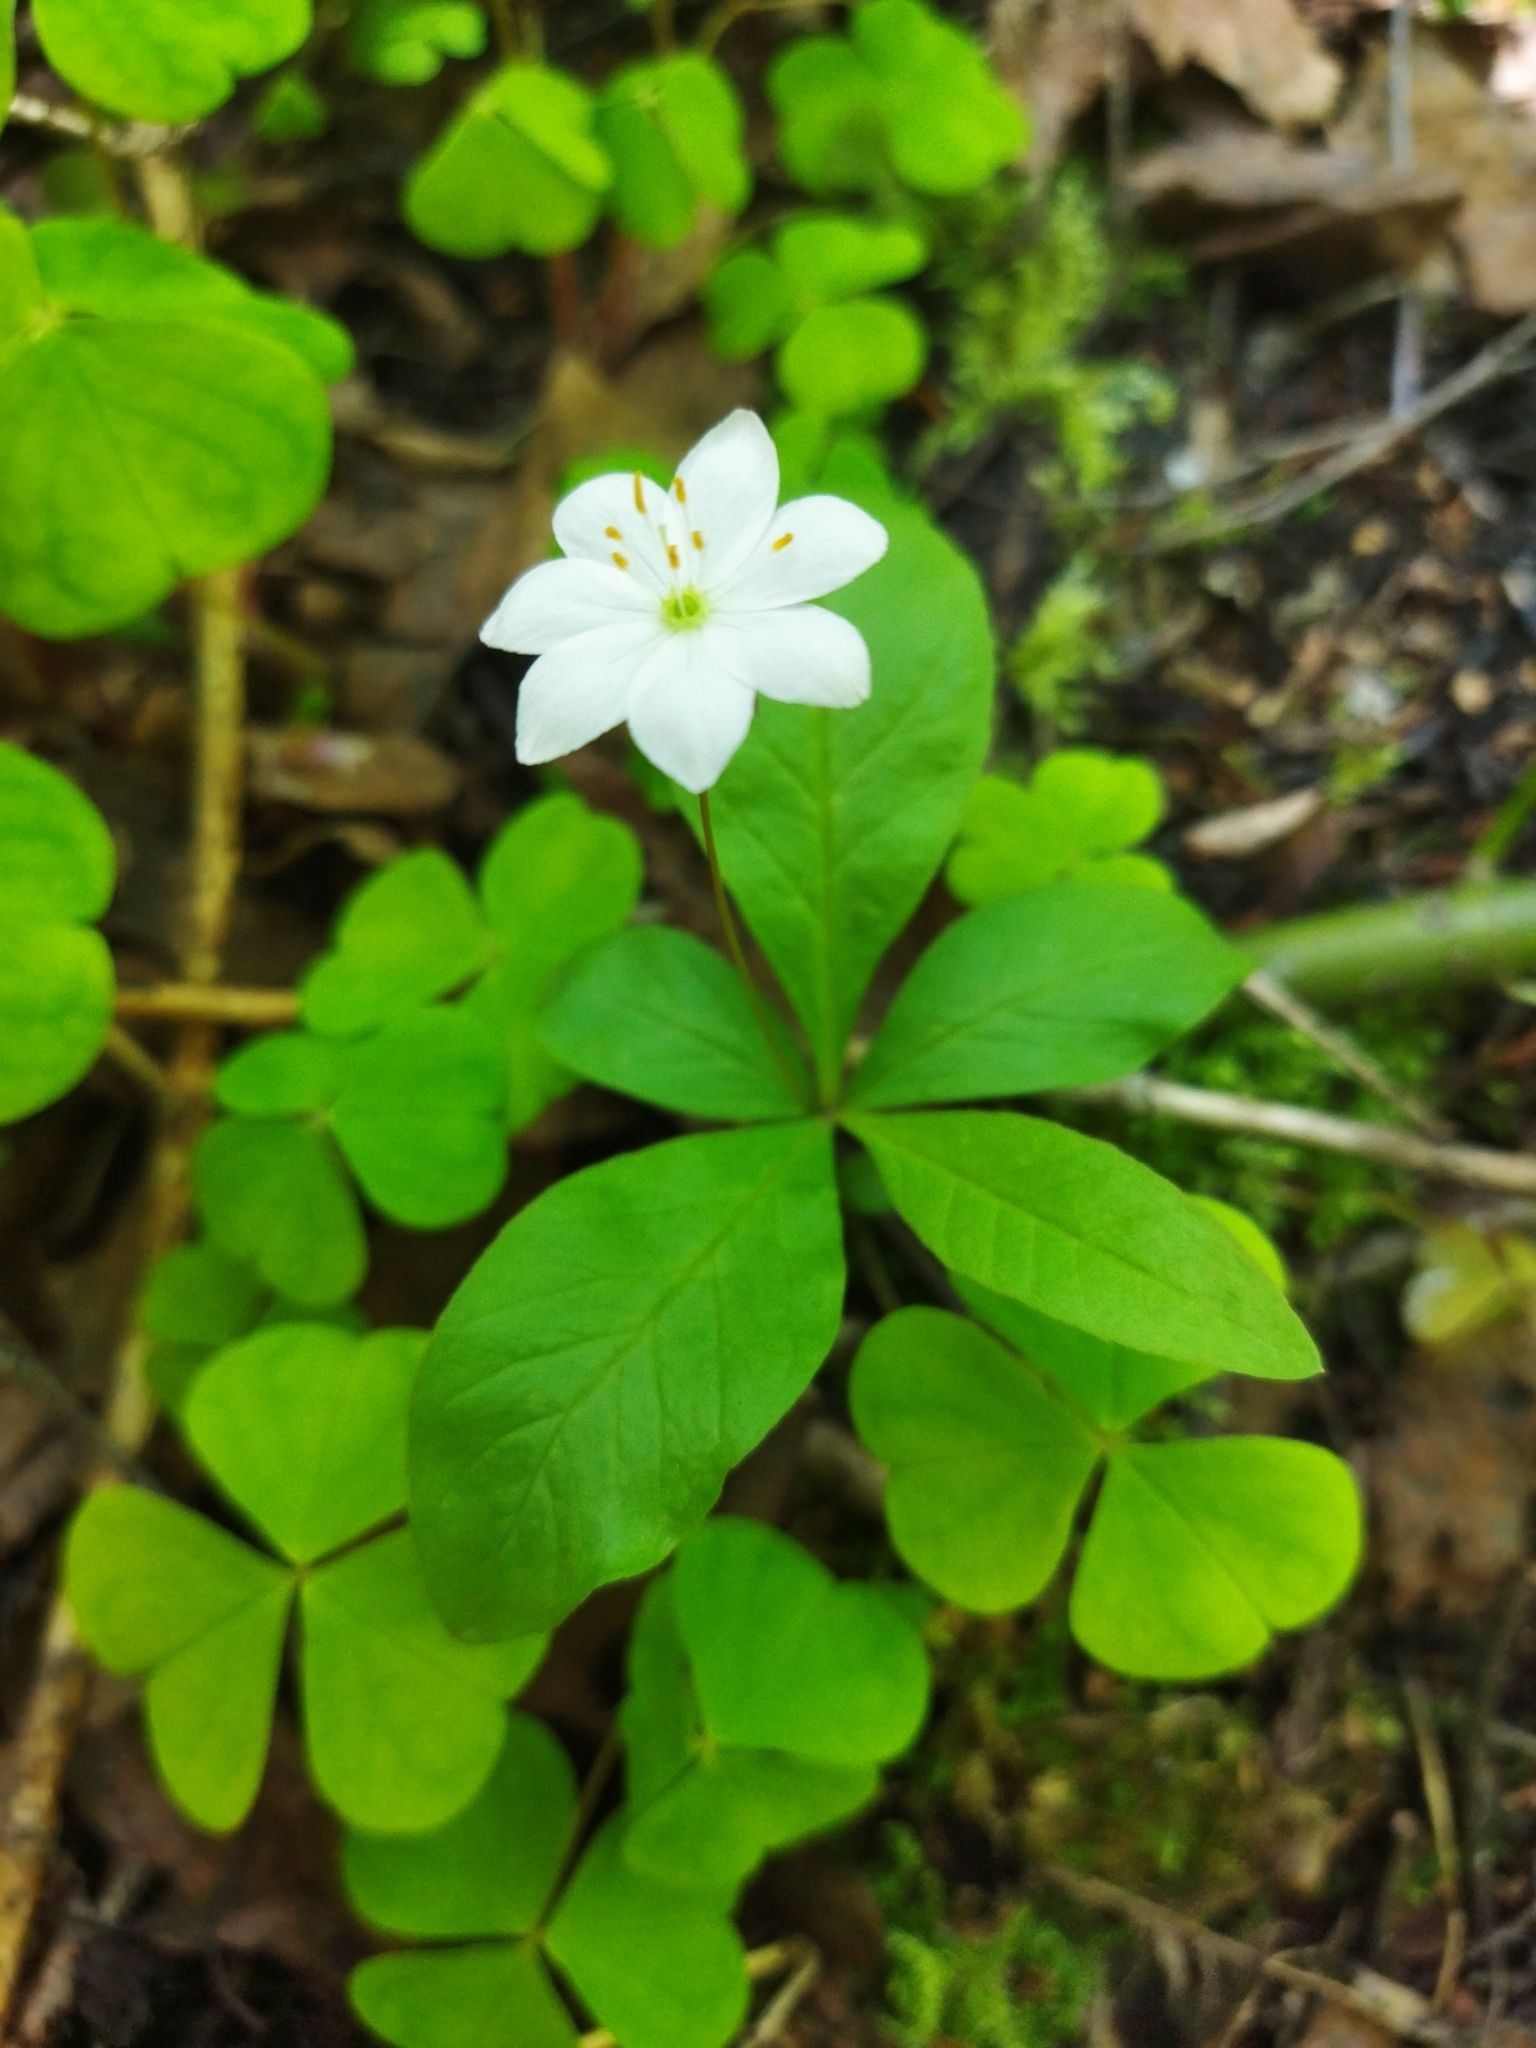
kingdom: Plantae
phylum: Tracheophyta
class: Magnoliopsida
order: Ericales
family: Primulaceae
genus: Lysimachia
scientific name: Lysimachia europaea
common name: Arctic starflower
